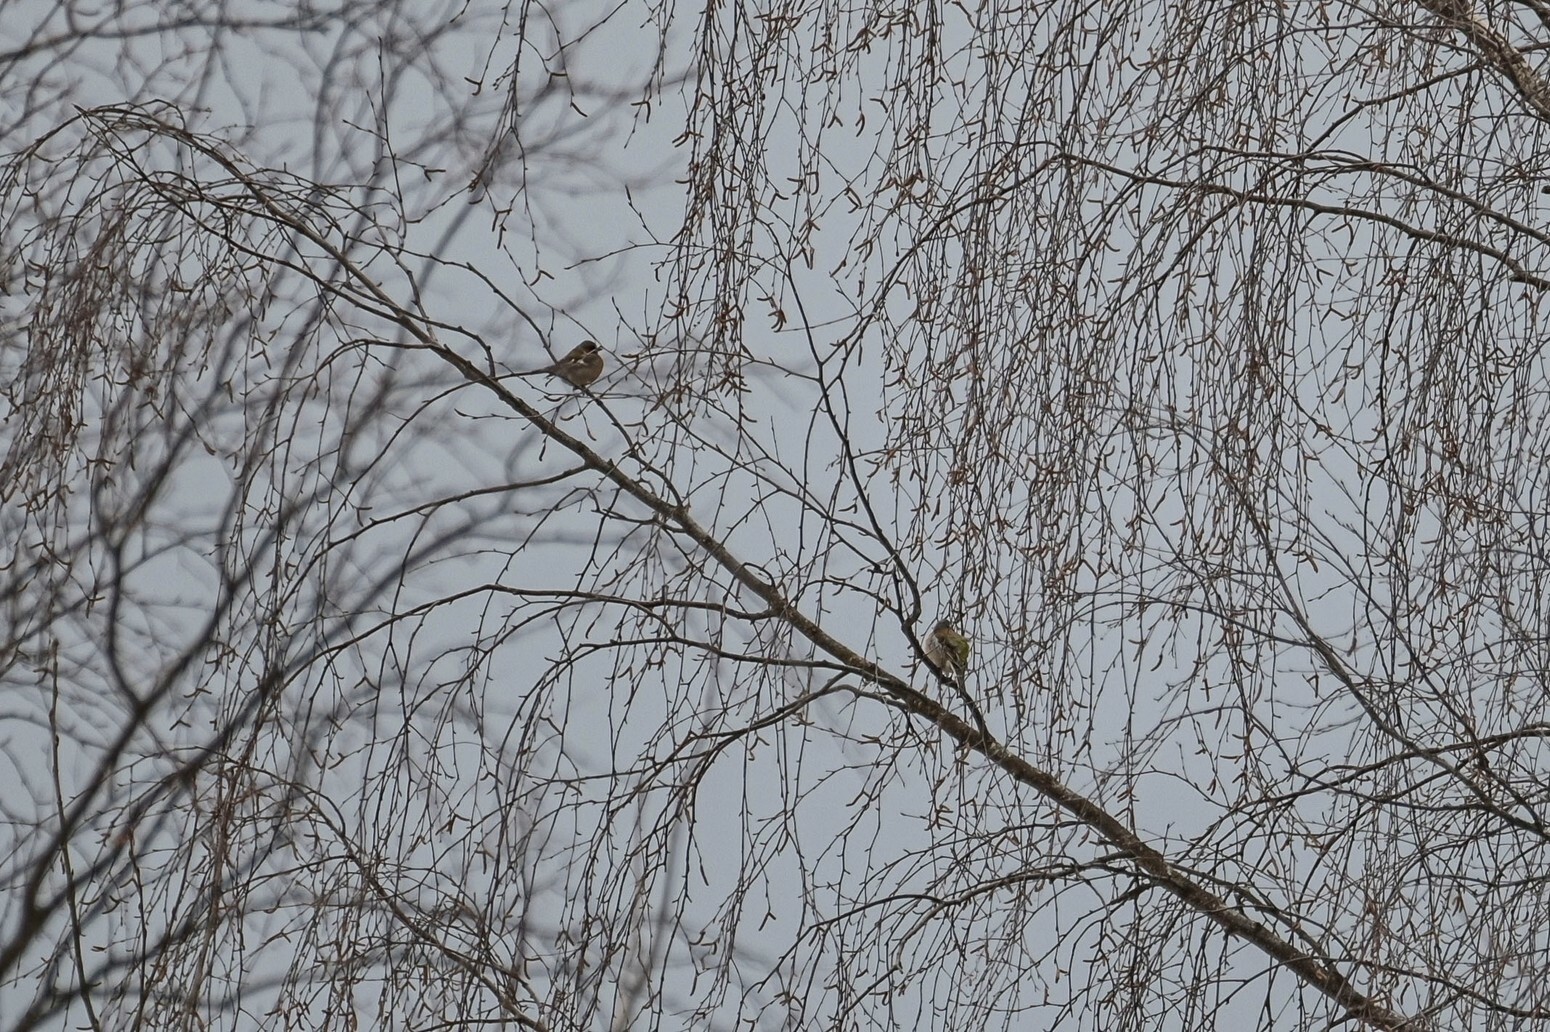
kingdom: Animalia
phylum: Chordata
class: Aves
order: Passeriformes
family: Fringillidae
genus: Fringilla
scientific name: Fringilla coelebs
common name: Common chaffinch
